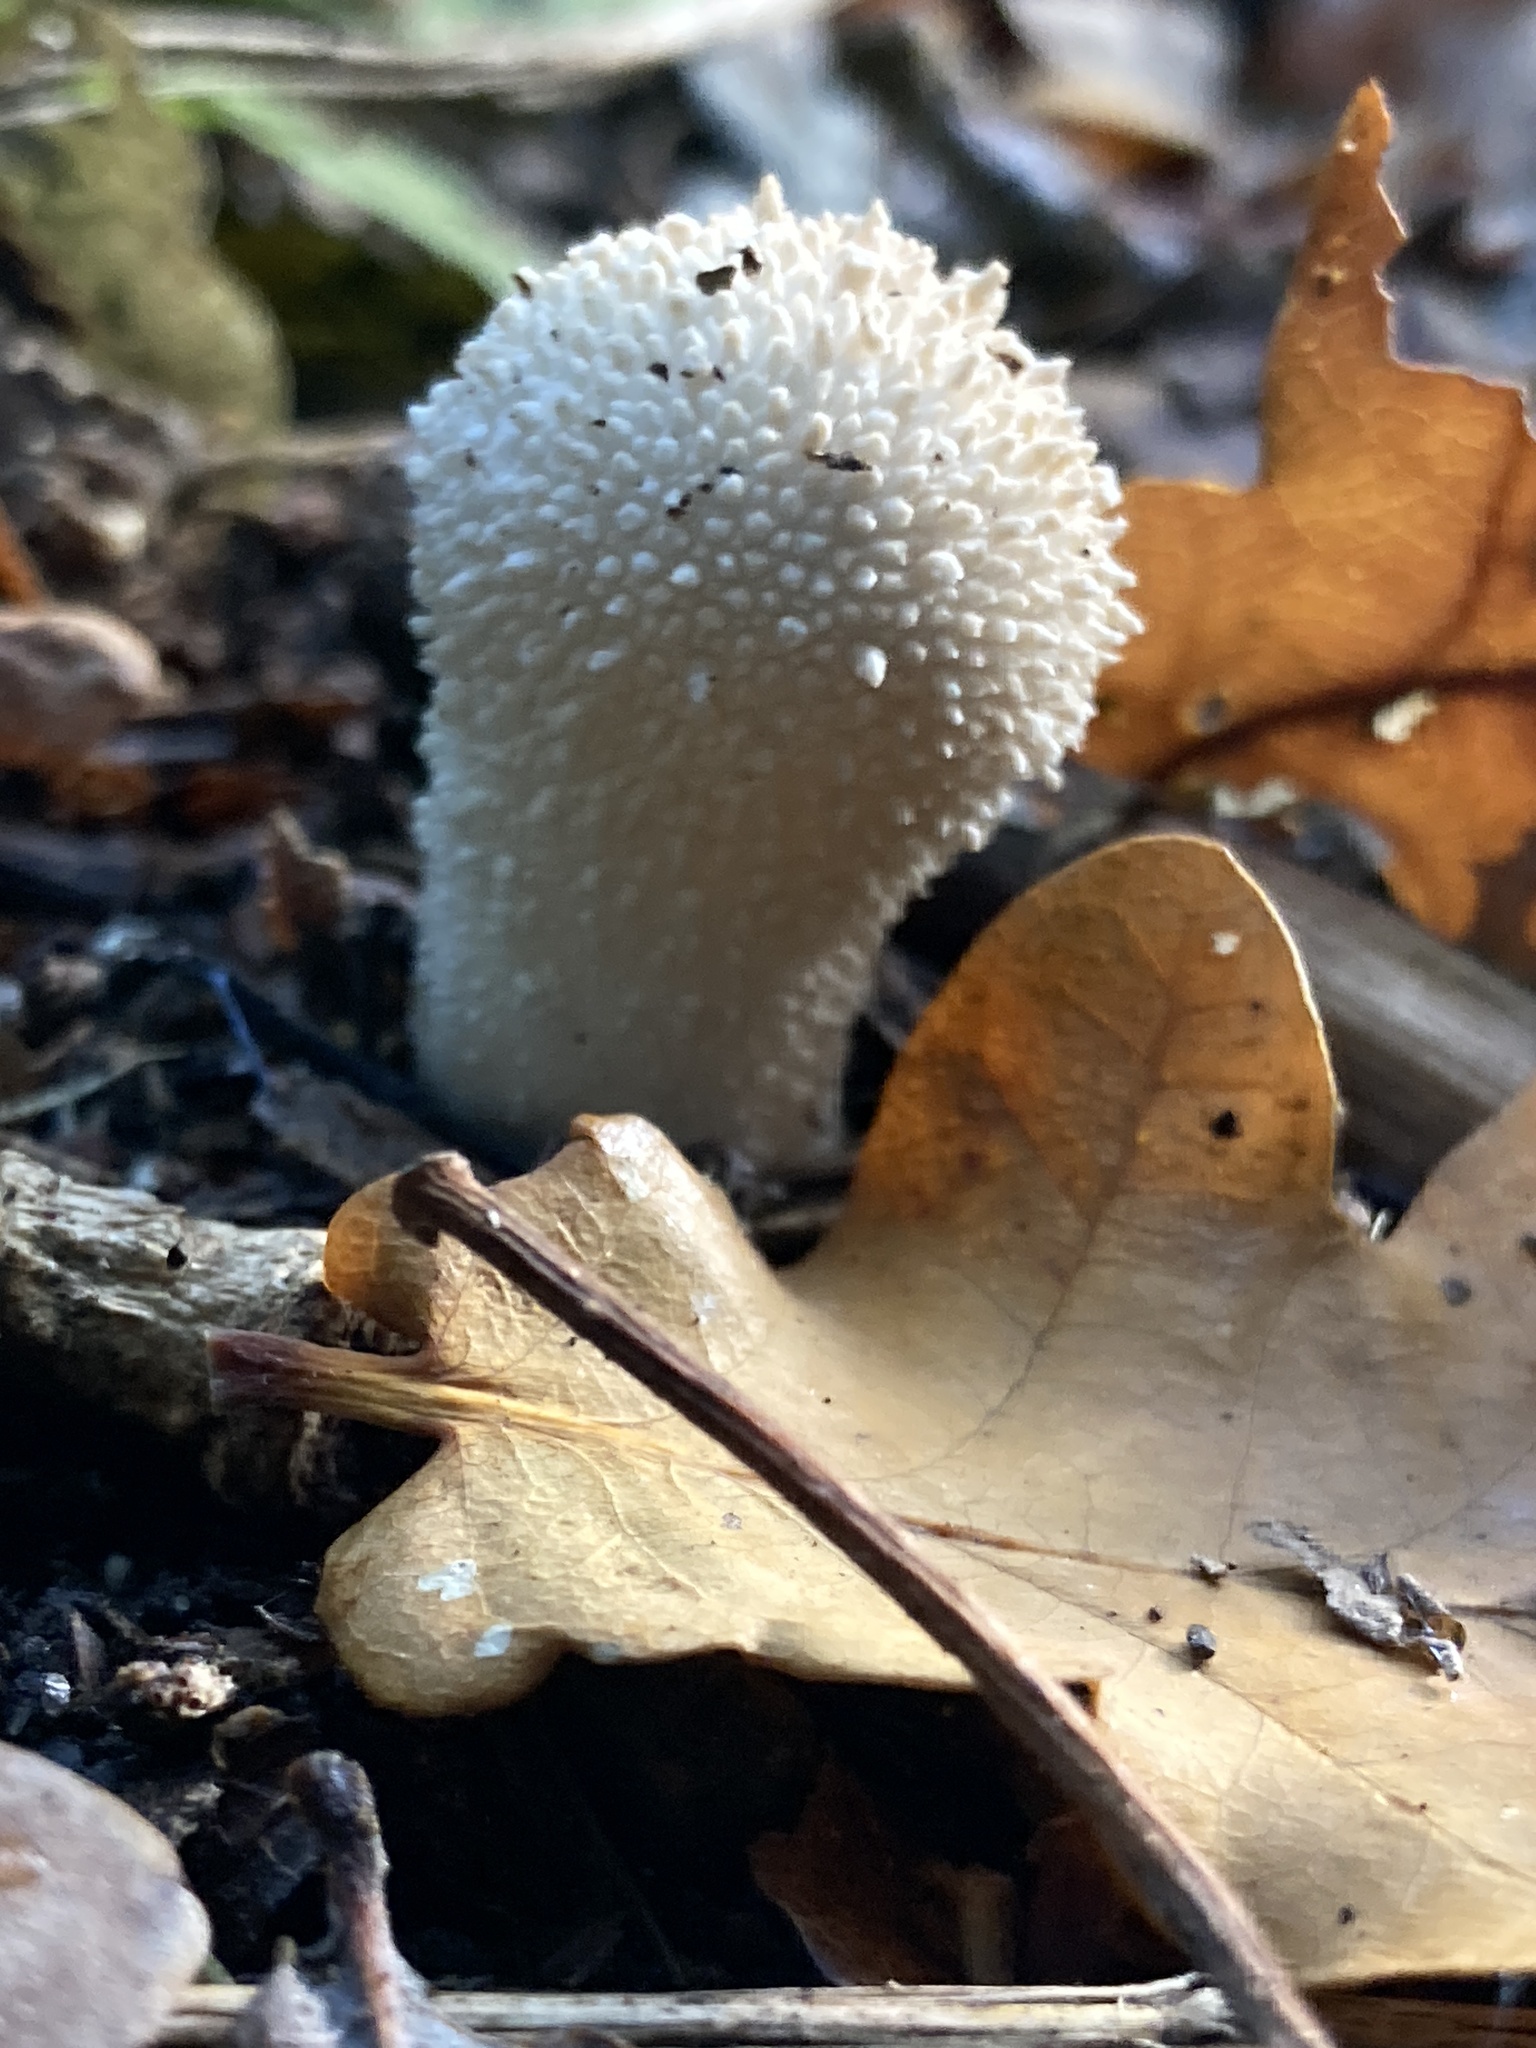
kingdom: Fungi
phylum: Basidiomycota
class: Agaricomycetes
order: Agaricales
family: Lycoperdaceae
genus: Lycoperdon
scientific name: Lycoperdon perlatum
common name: Common puffball
